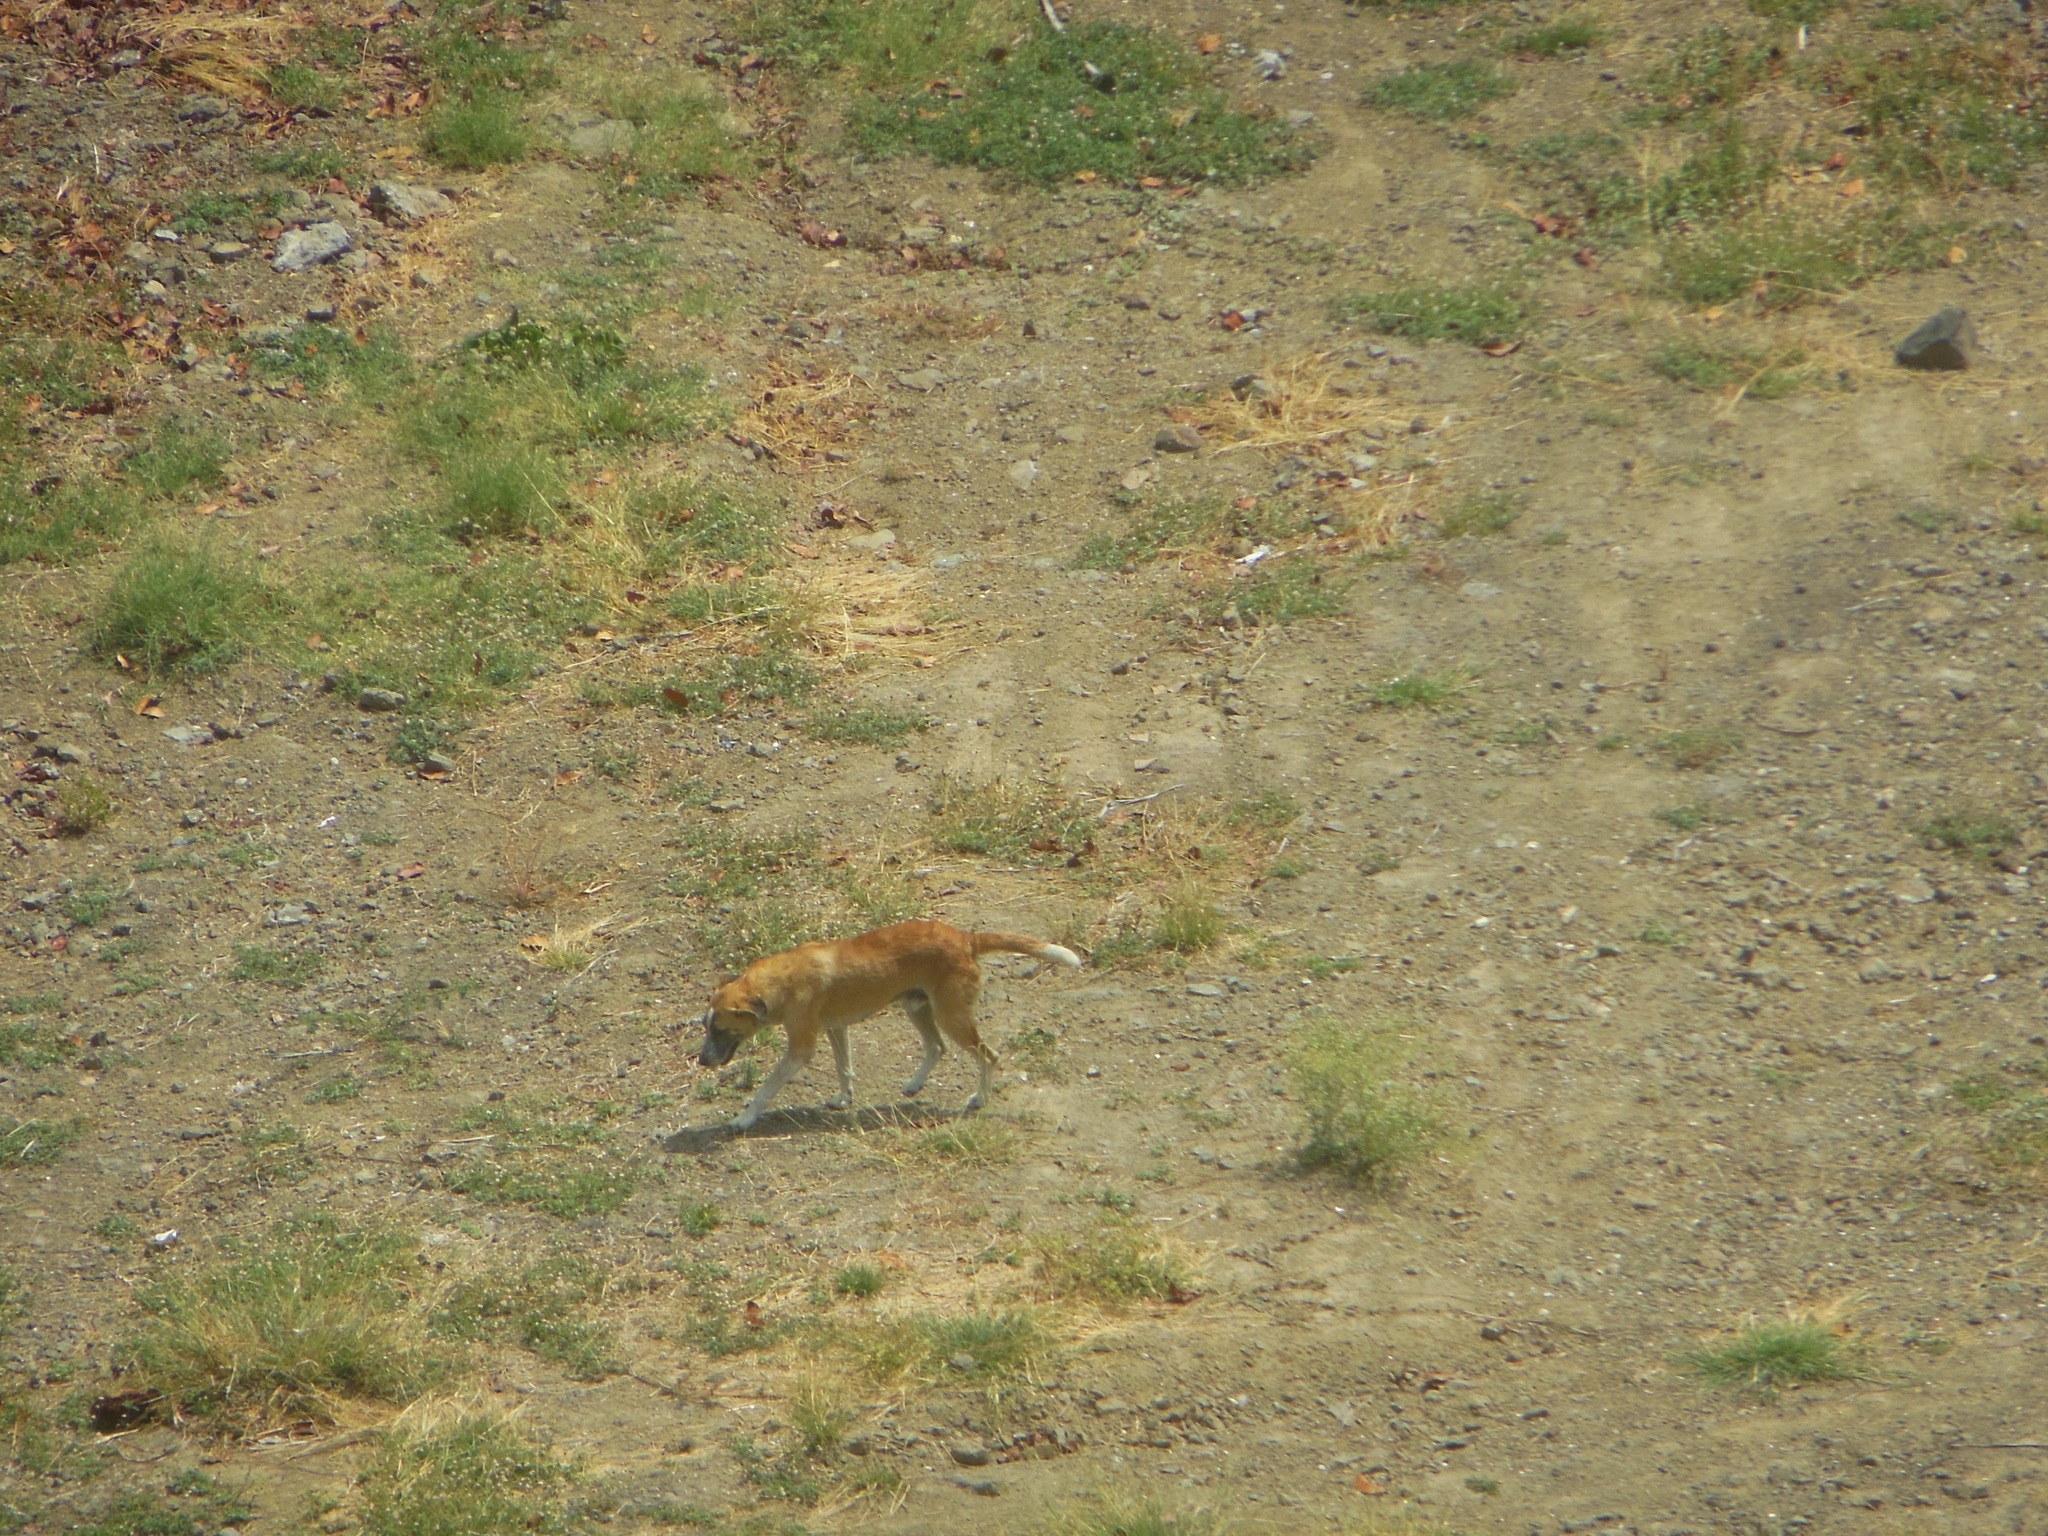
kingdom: Animalia
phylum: Chordata
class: Mammalia
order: Carnivora
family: Canidae
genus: Canis
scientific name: Canis lupus
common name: Gray wolf
